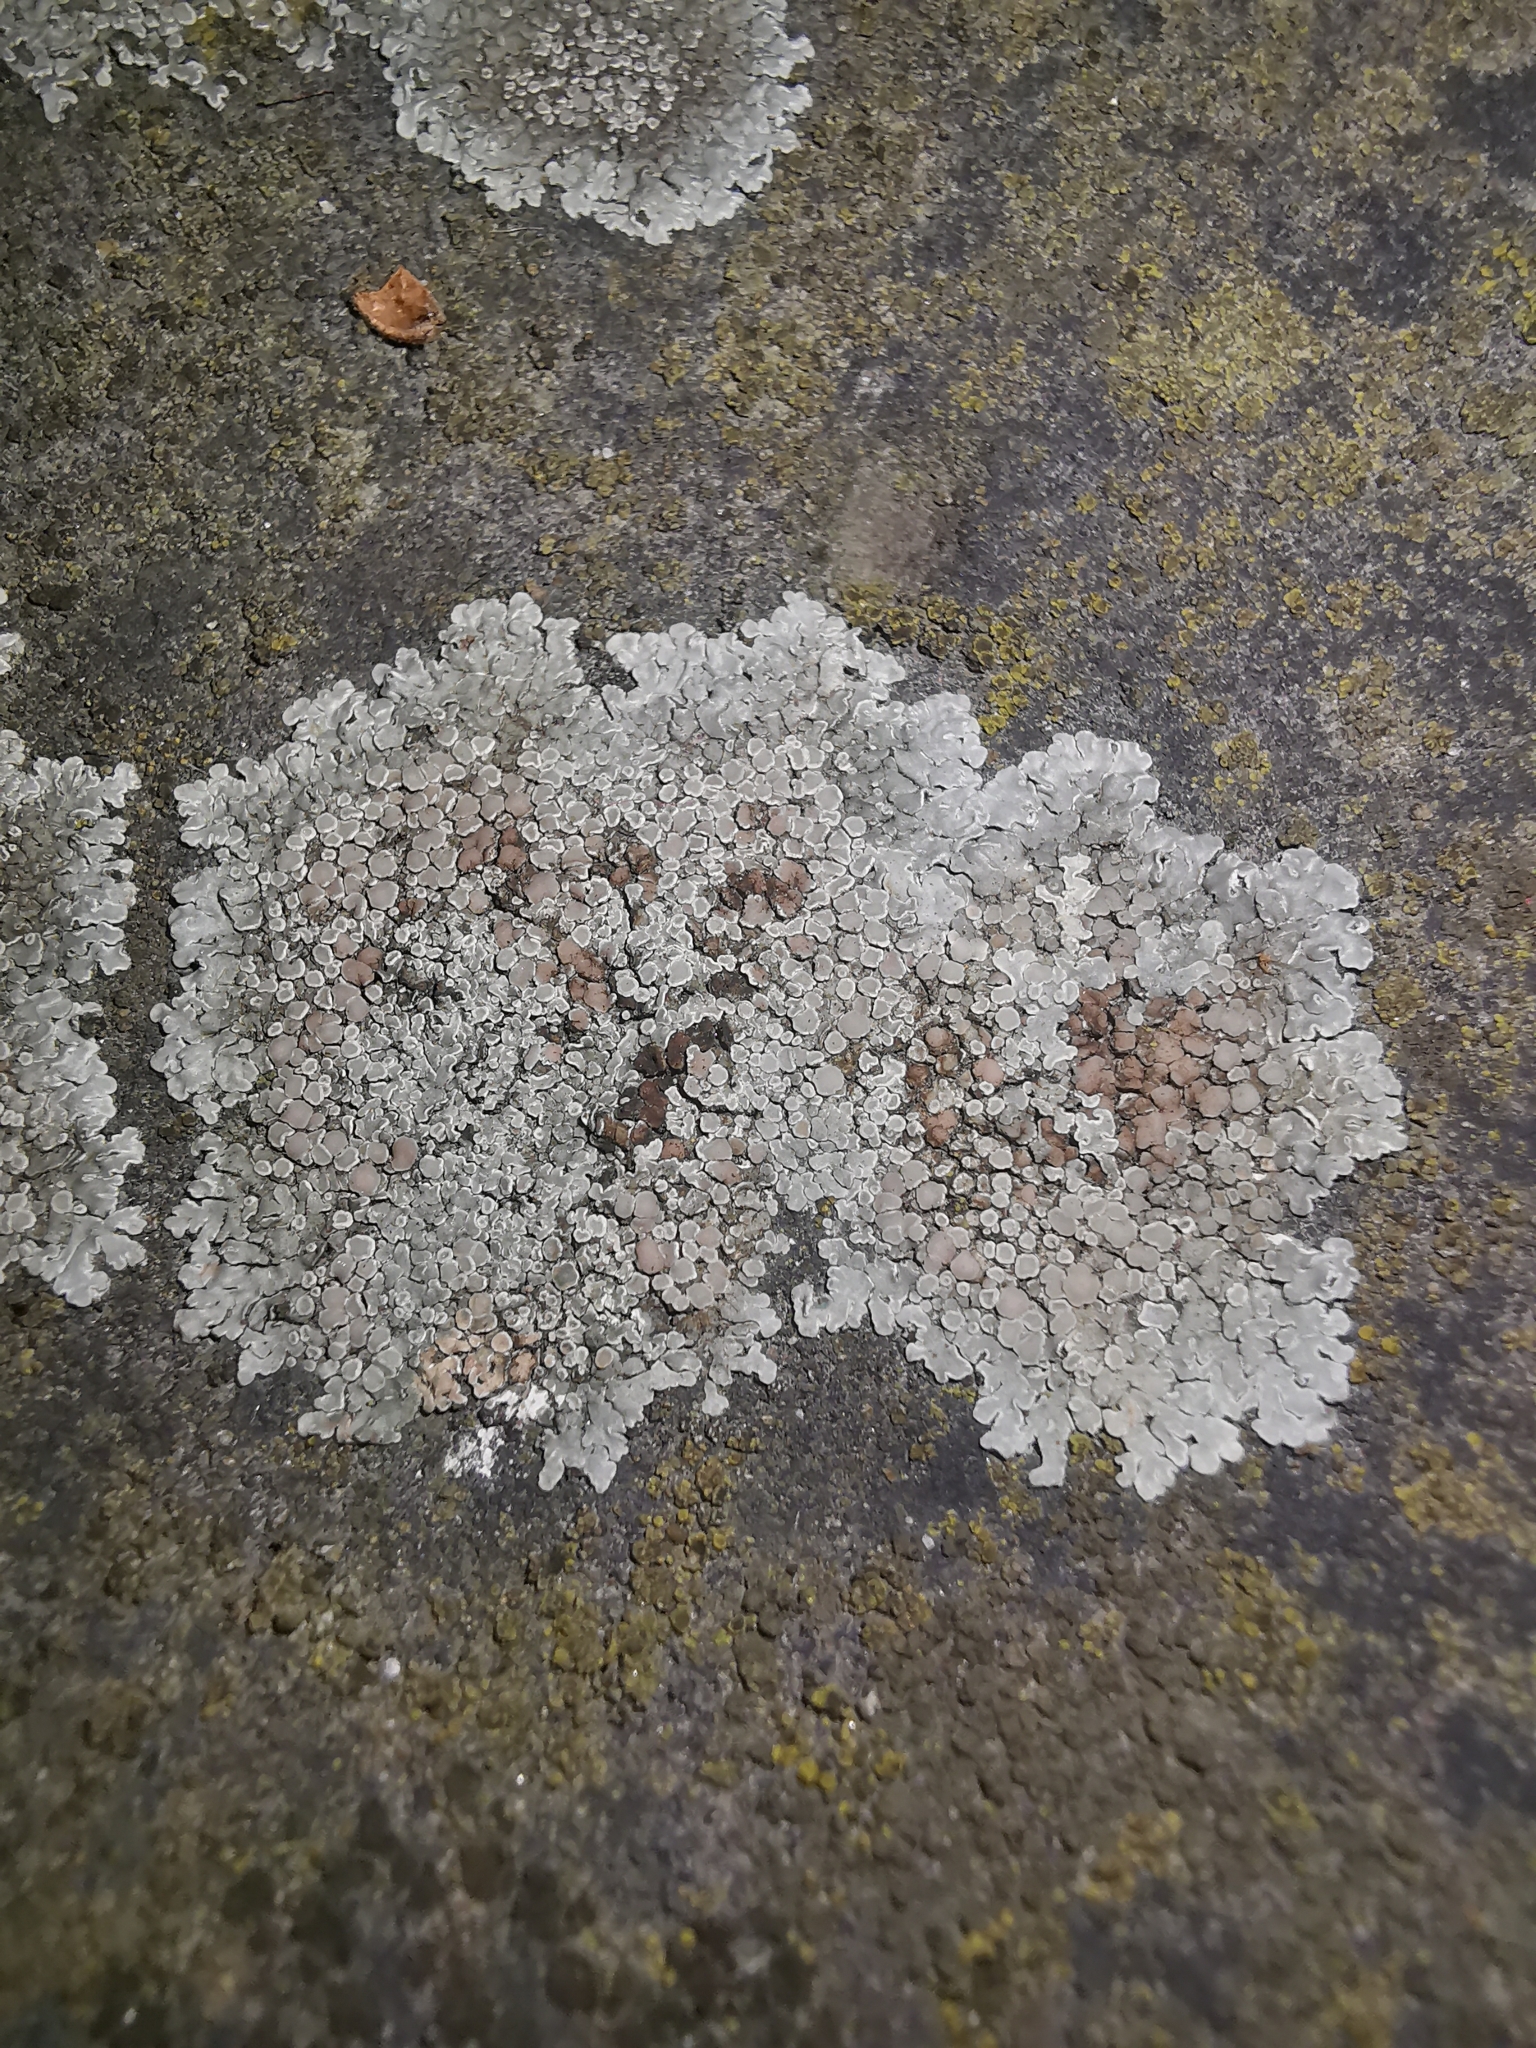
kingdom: Fungi
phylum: Ascomycota
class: Lecanoromycetes
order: Lecanorales
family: Lecanoraceae
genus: Protoparmeliopsis
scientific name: Protoparmeliopsis muralis
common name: Stonewall rim lichen
